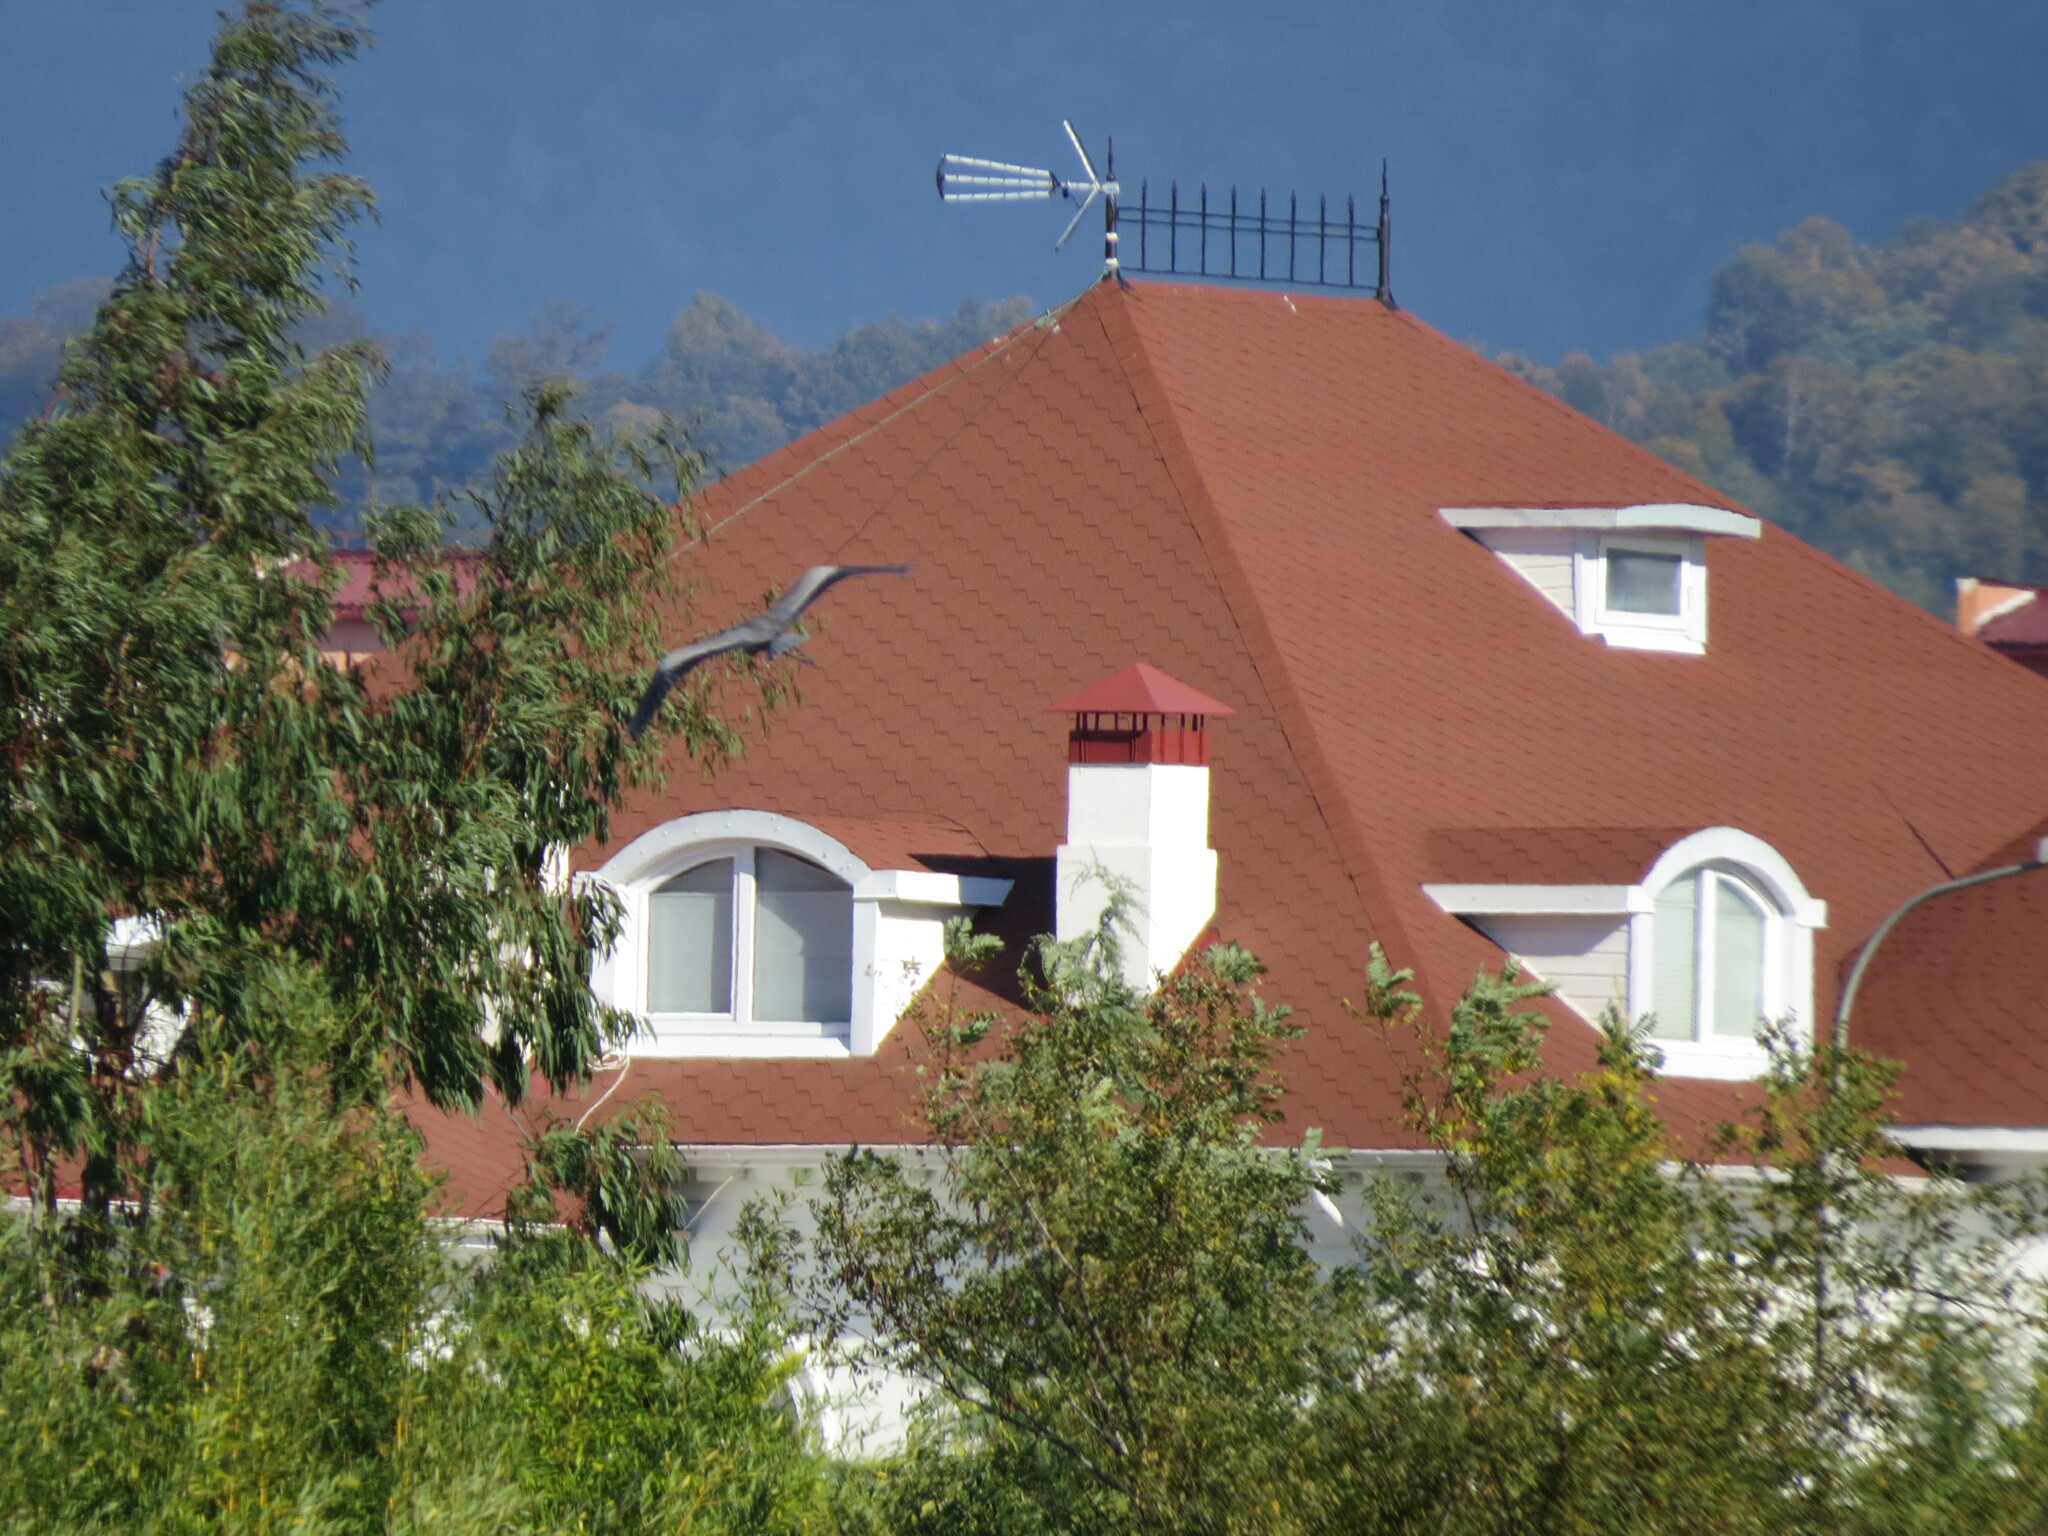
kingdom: Animalia
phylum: Chordata
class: Aves
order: Pelecaniformes
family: Ardeidae
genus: Ardea
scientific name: Ardea cinerea
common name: Grey heron
